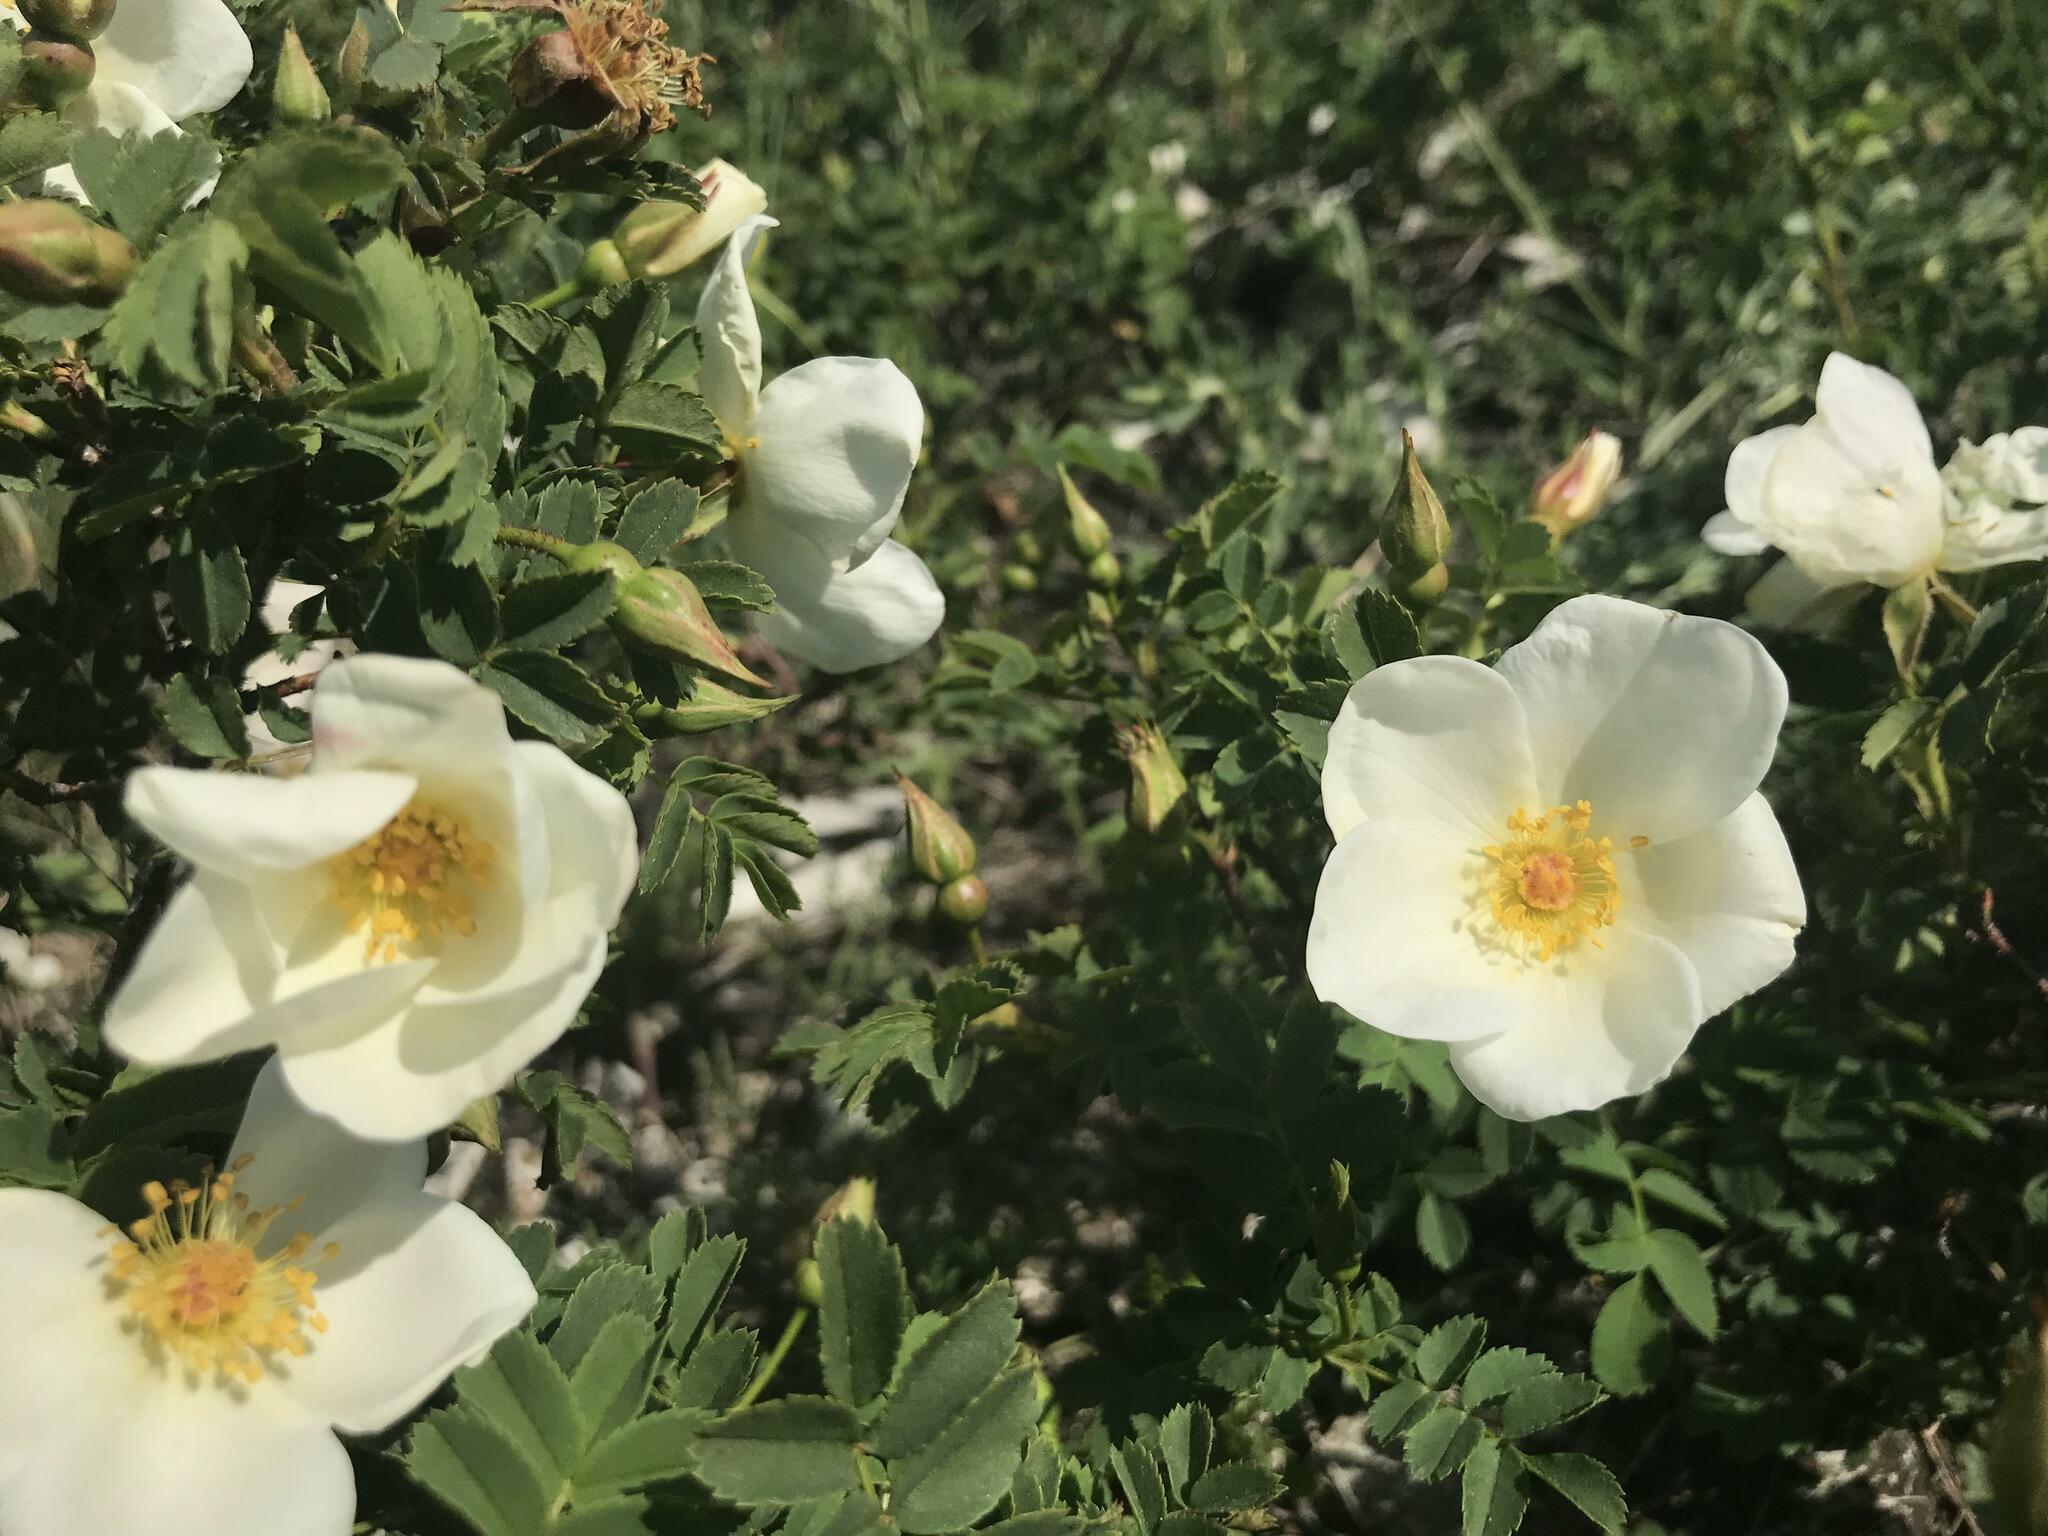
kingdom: Plantae
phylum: Tracheophyta
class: Magnoliopsida
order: Rosales
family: Rosaceae
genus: Rosa
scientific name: Rosa spinosissima
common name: Burnet rose
